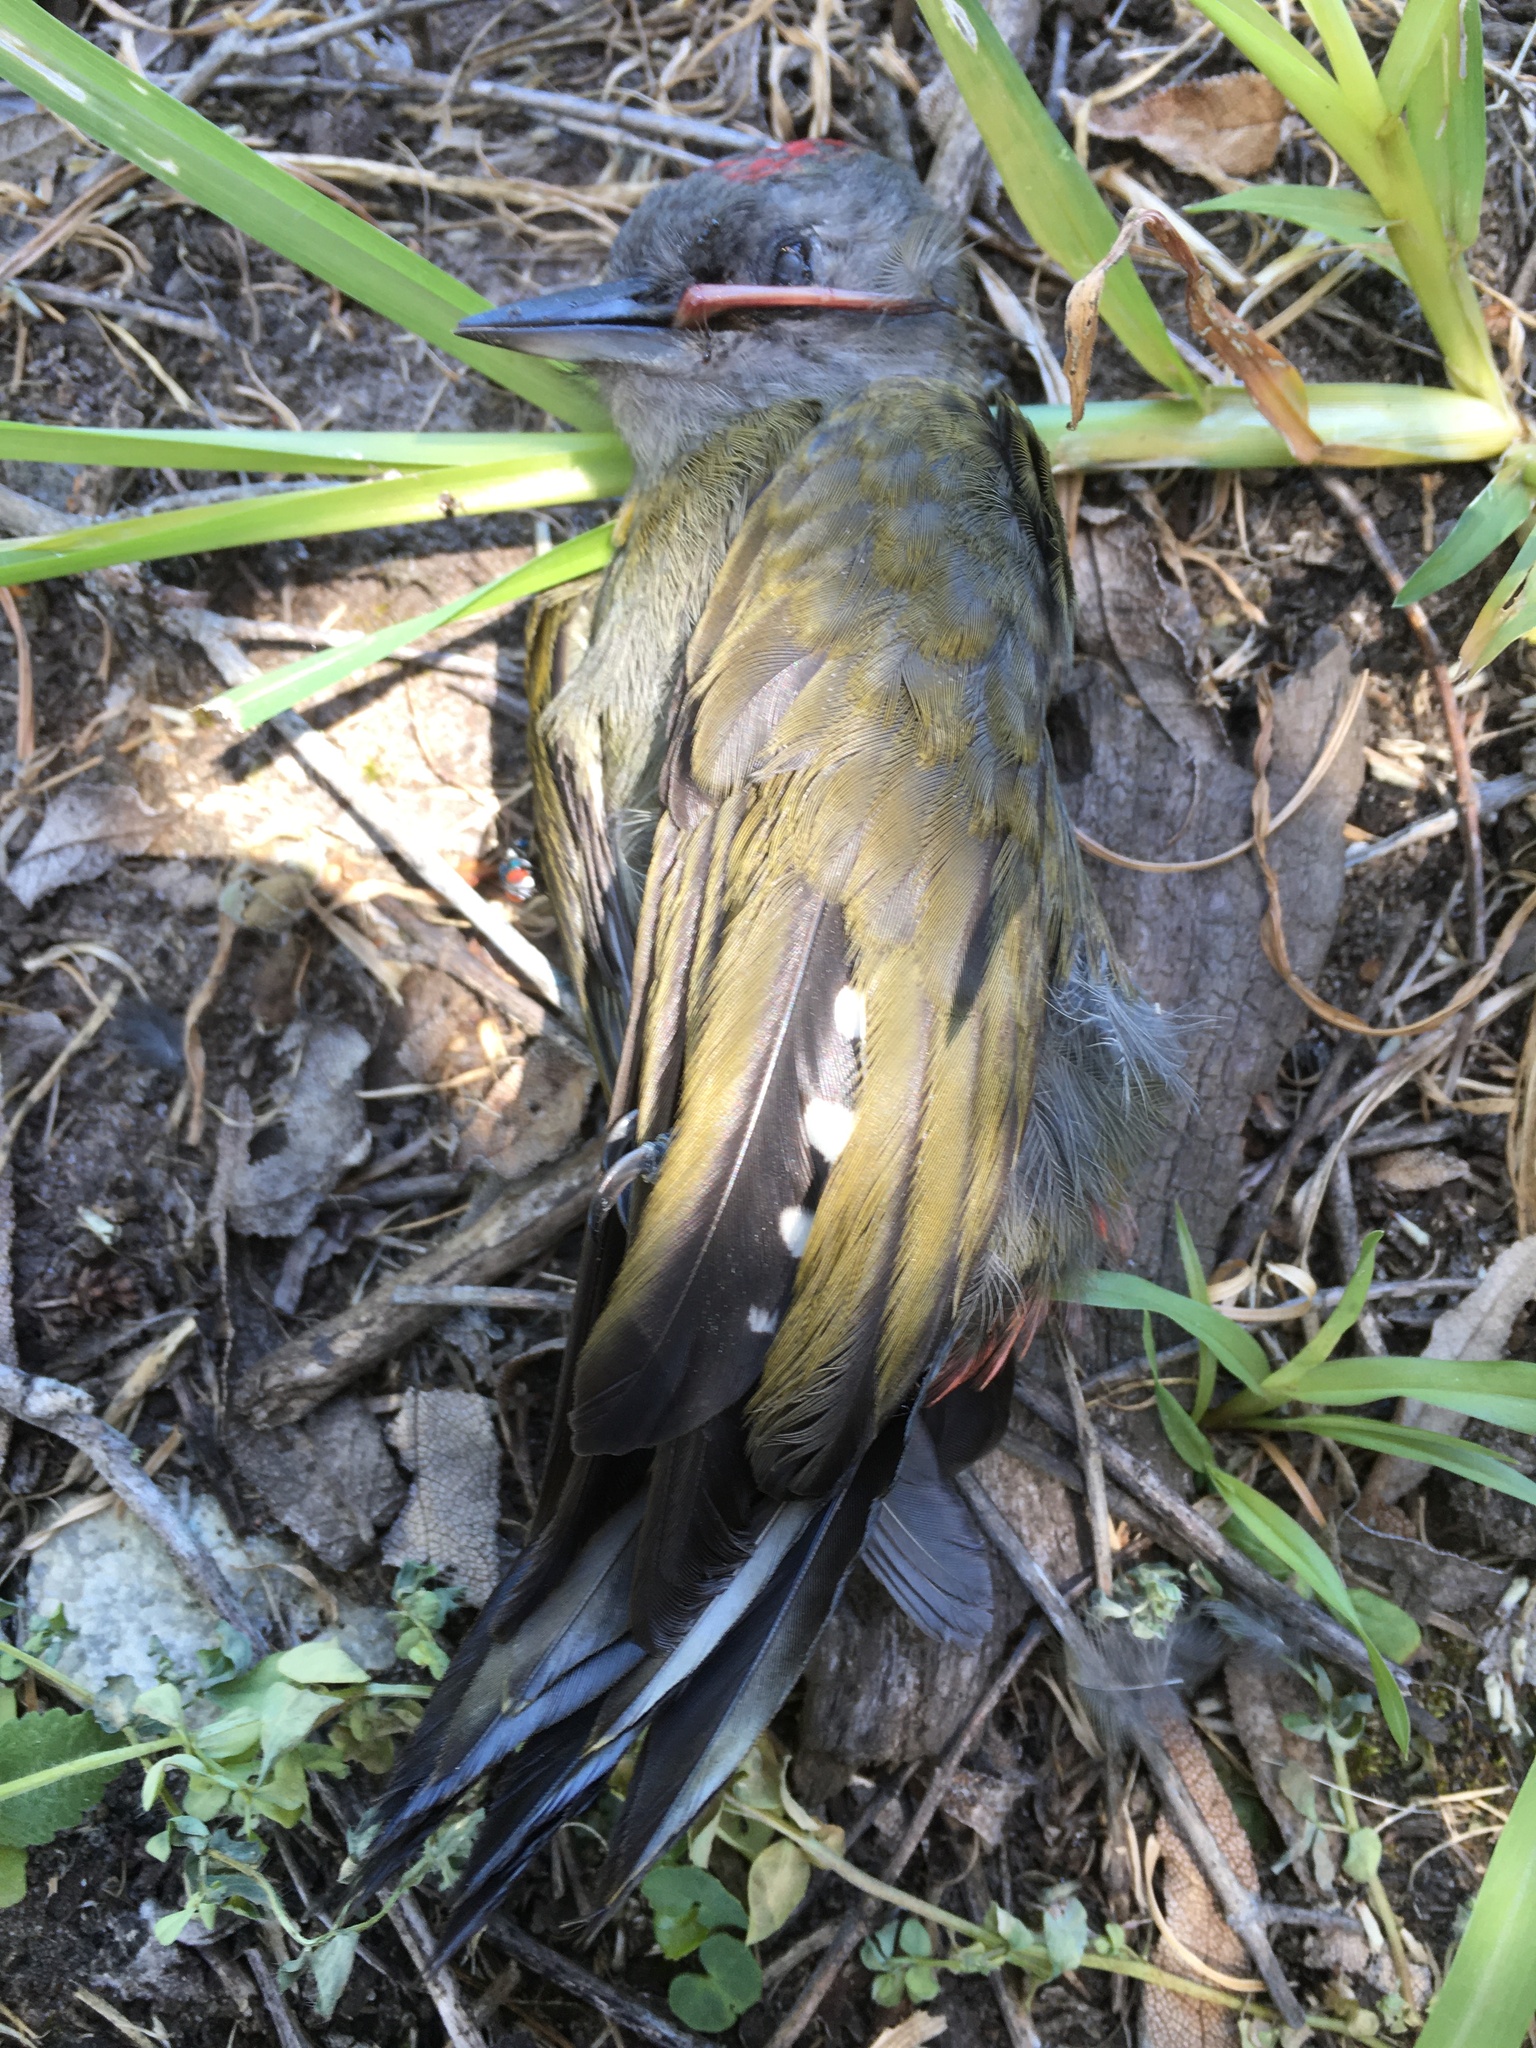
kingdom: Animalia
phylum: Chordata
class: Aves
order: Piciformes
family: Picidae
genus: Dendropicos
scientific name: Dendropicos griseocephalus
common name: Olive woodpecker
